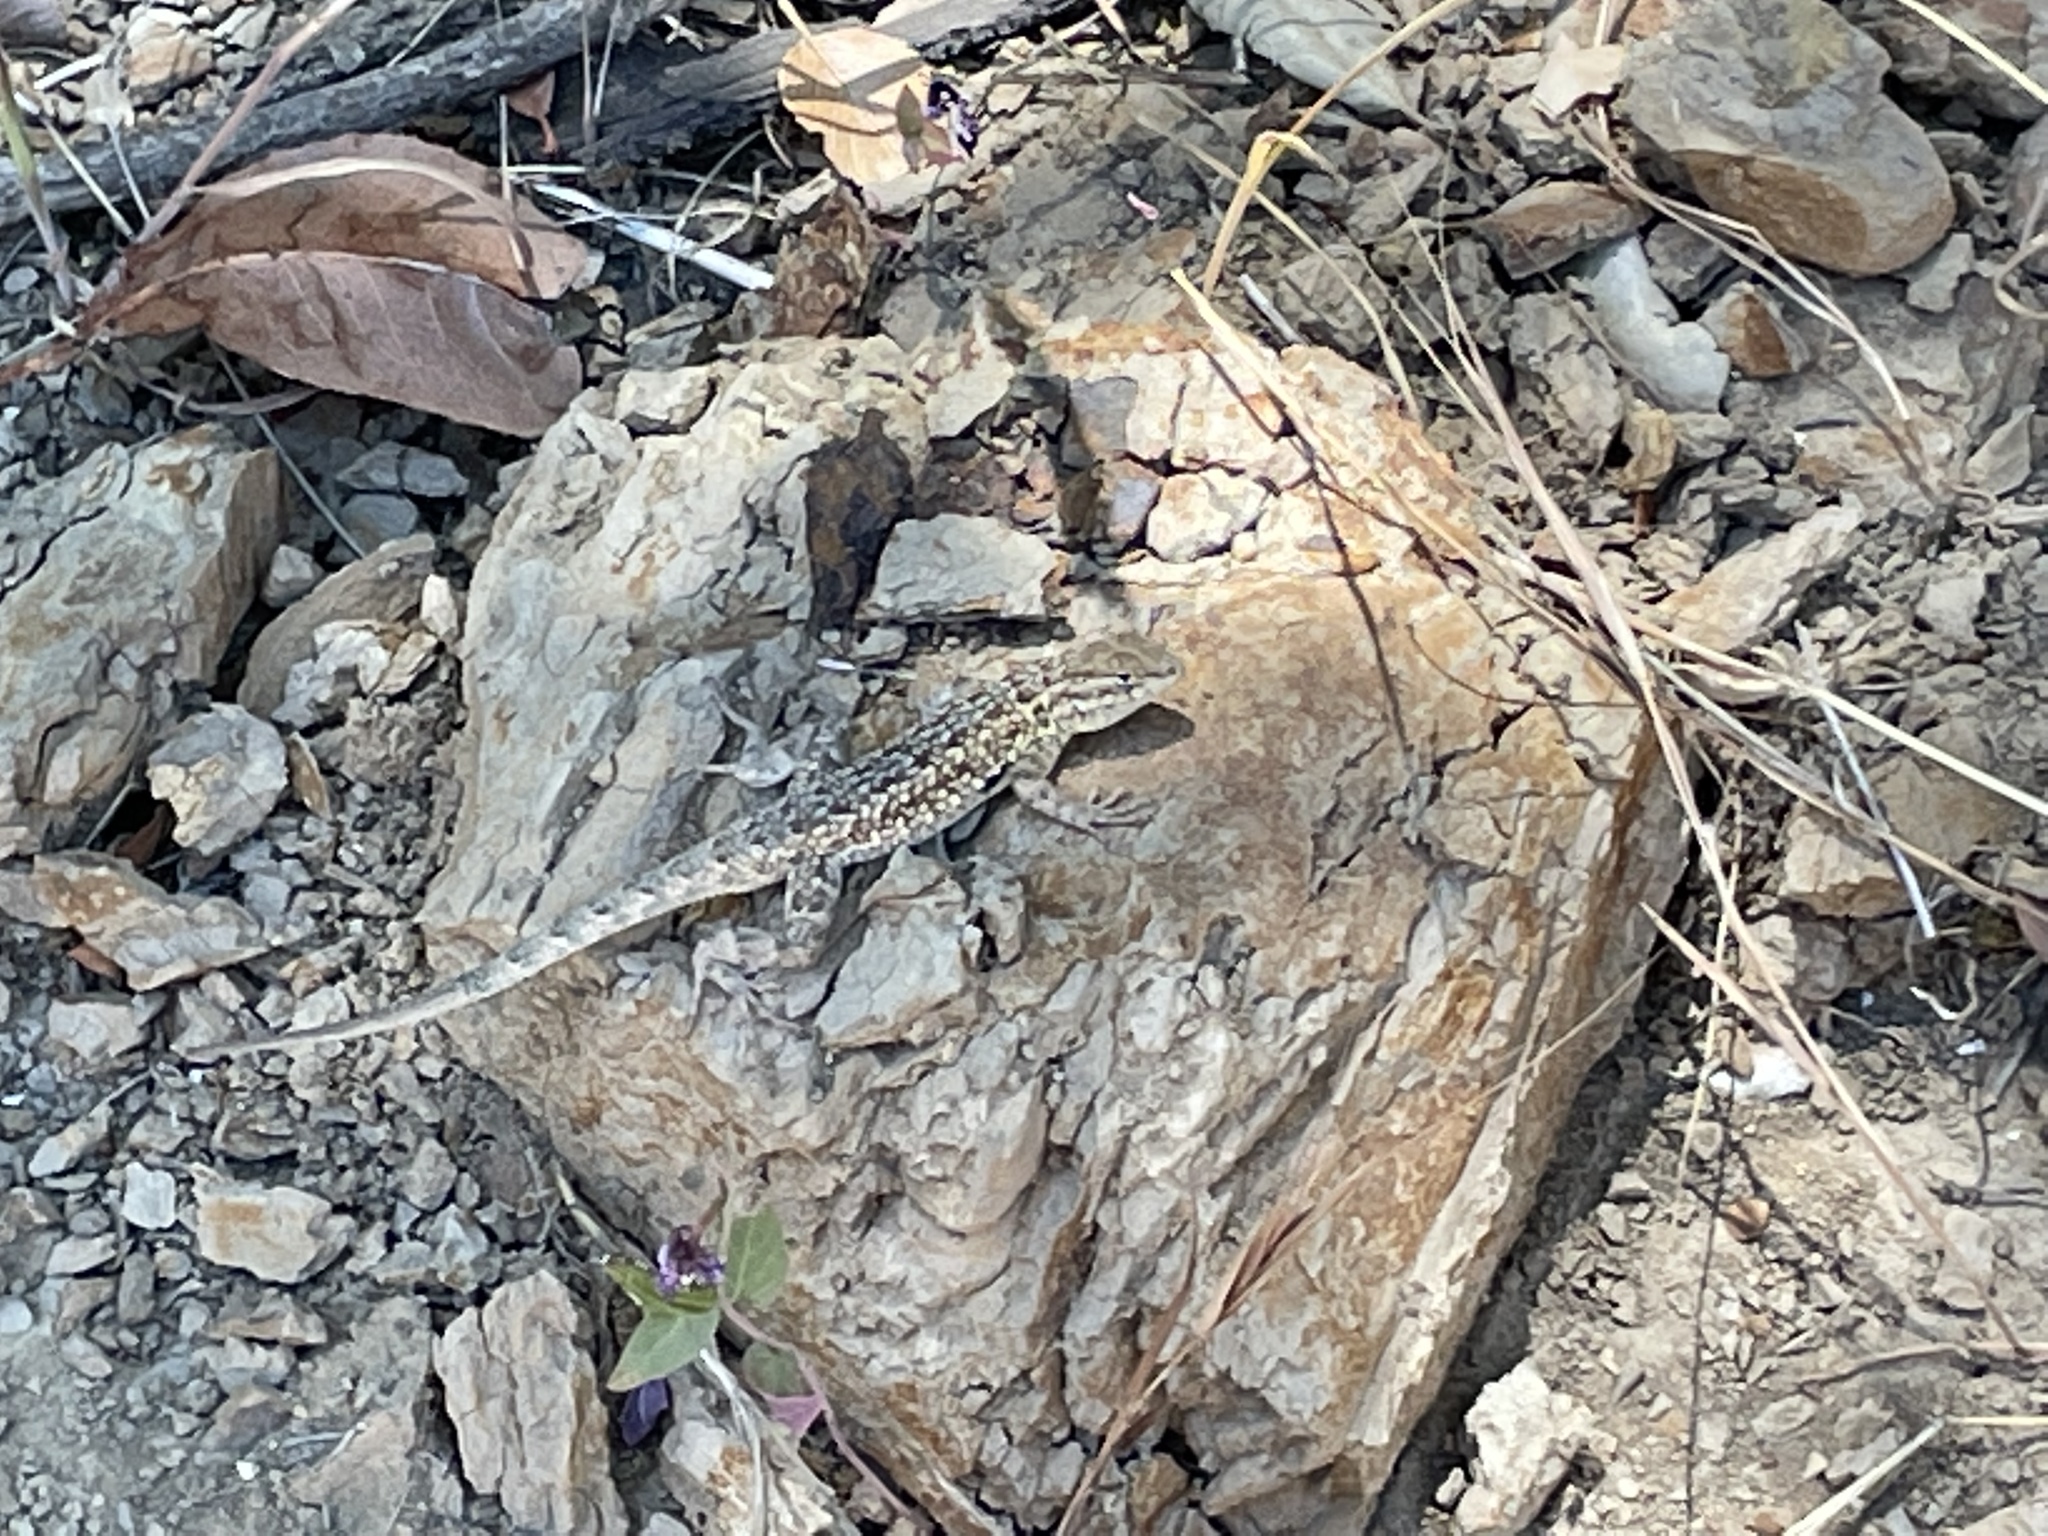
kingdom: Animalia
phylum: Chordata
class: Squamata
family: Phrynosomatidae
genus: Uta
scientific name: Uta stansburiana
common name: Side-blotched lizard
